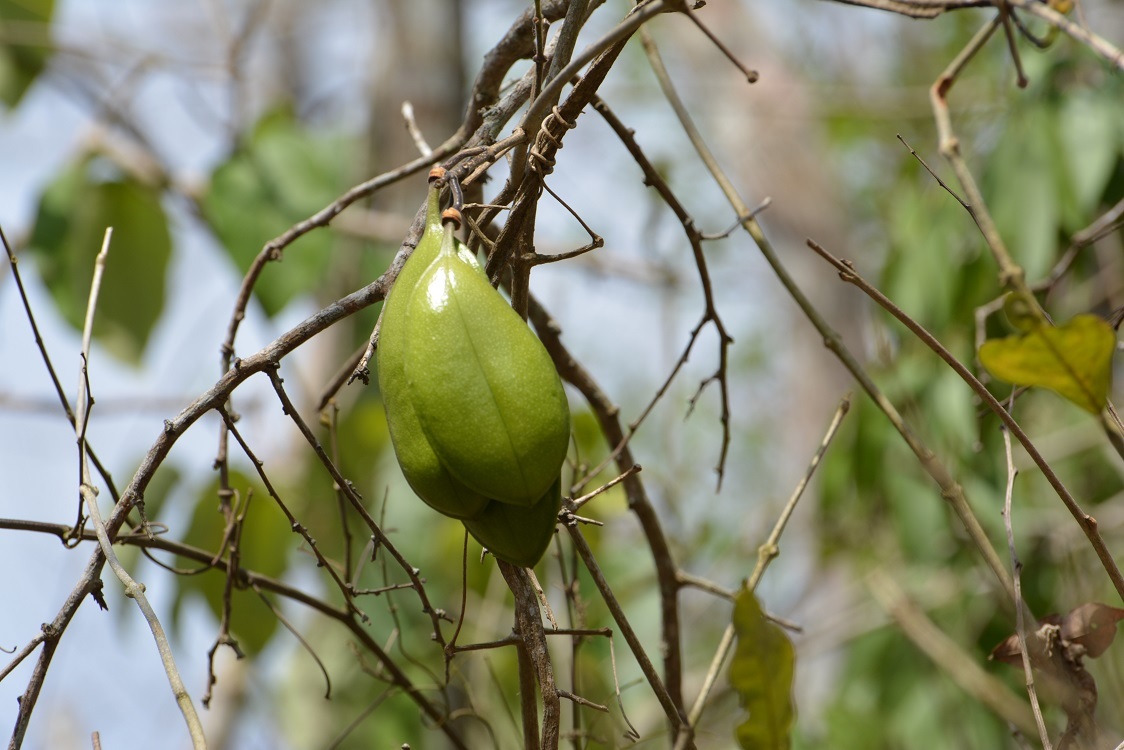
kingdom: Plantae
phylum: Tracheophyta
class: Magnoliopsida
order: Lamiales
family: Bignoniaceae
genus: Anemopaegma
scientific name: Anemopaegma puberulum
